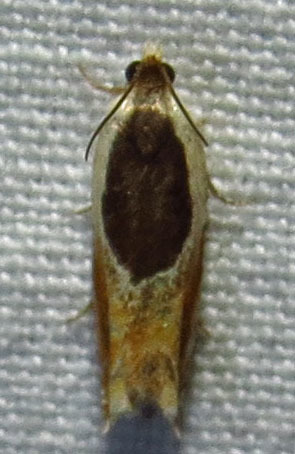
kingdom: Animalia
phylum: Arthropoda
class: Insecta
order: Lepidoptera
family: Tortricidae
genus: Ancylis
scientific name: Ancylis burgessiana
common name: Oak leaffolder moth
